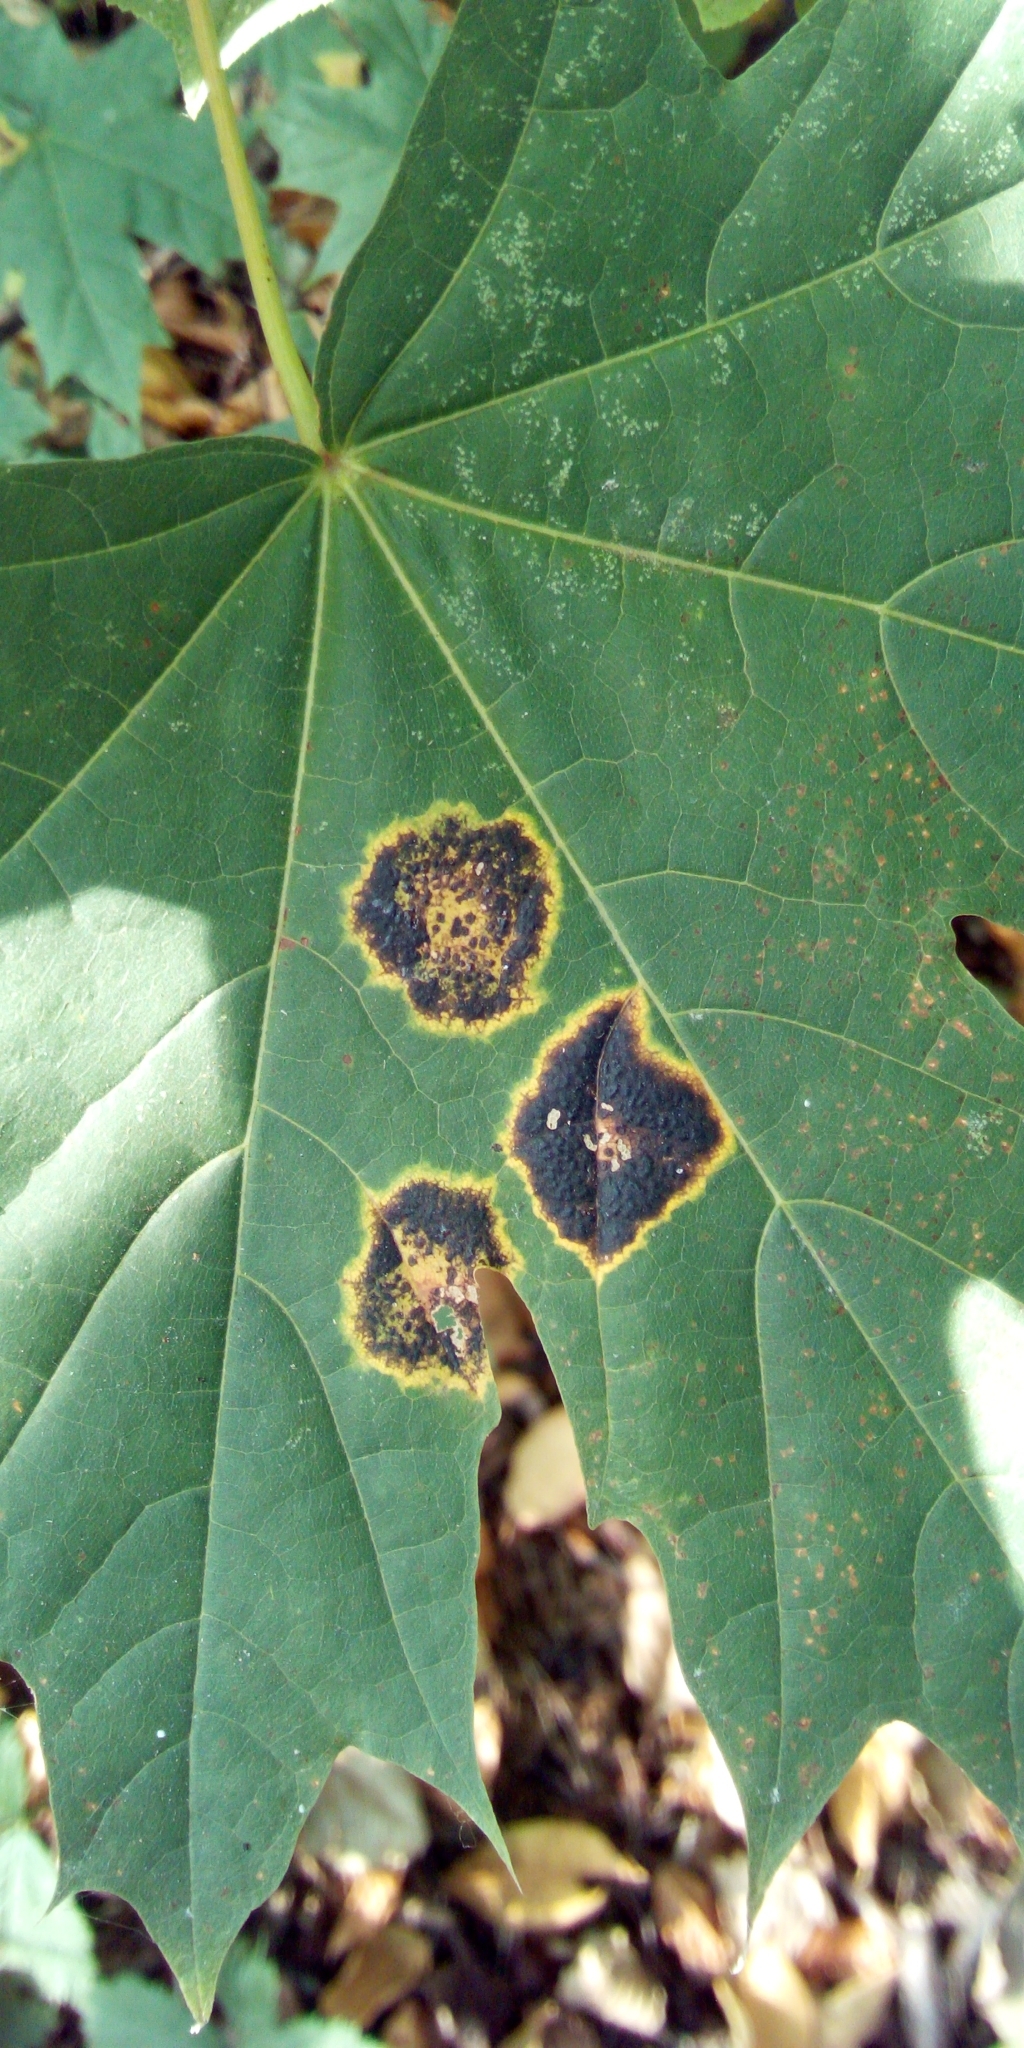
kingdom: Fungi
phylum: Ascomycota
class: Leotiomycetes
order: Rhytismatales
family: Rhytismataceae
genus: Rhytisma
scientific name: Rhytisma acerinum
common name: European tar spot
